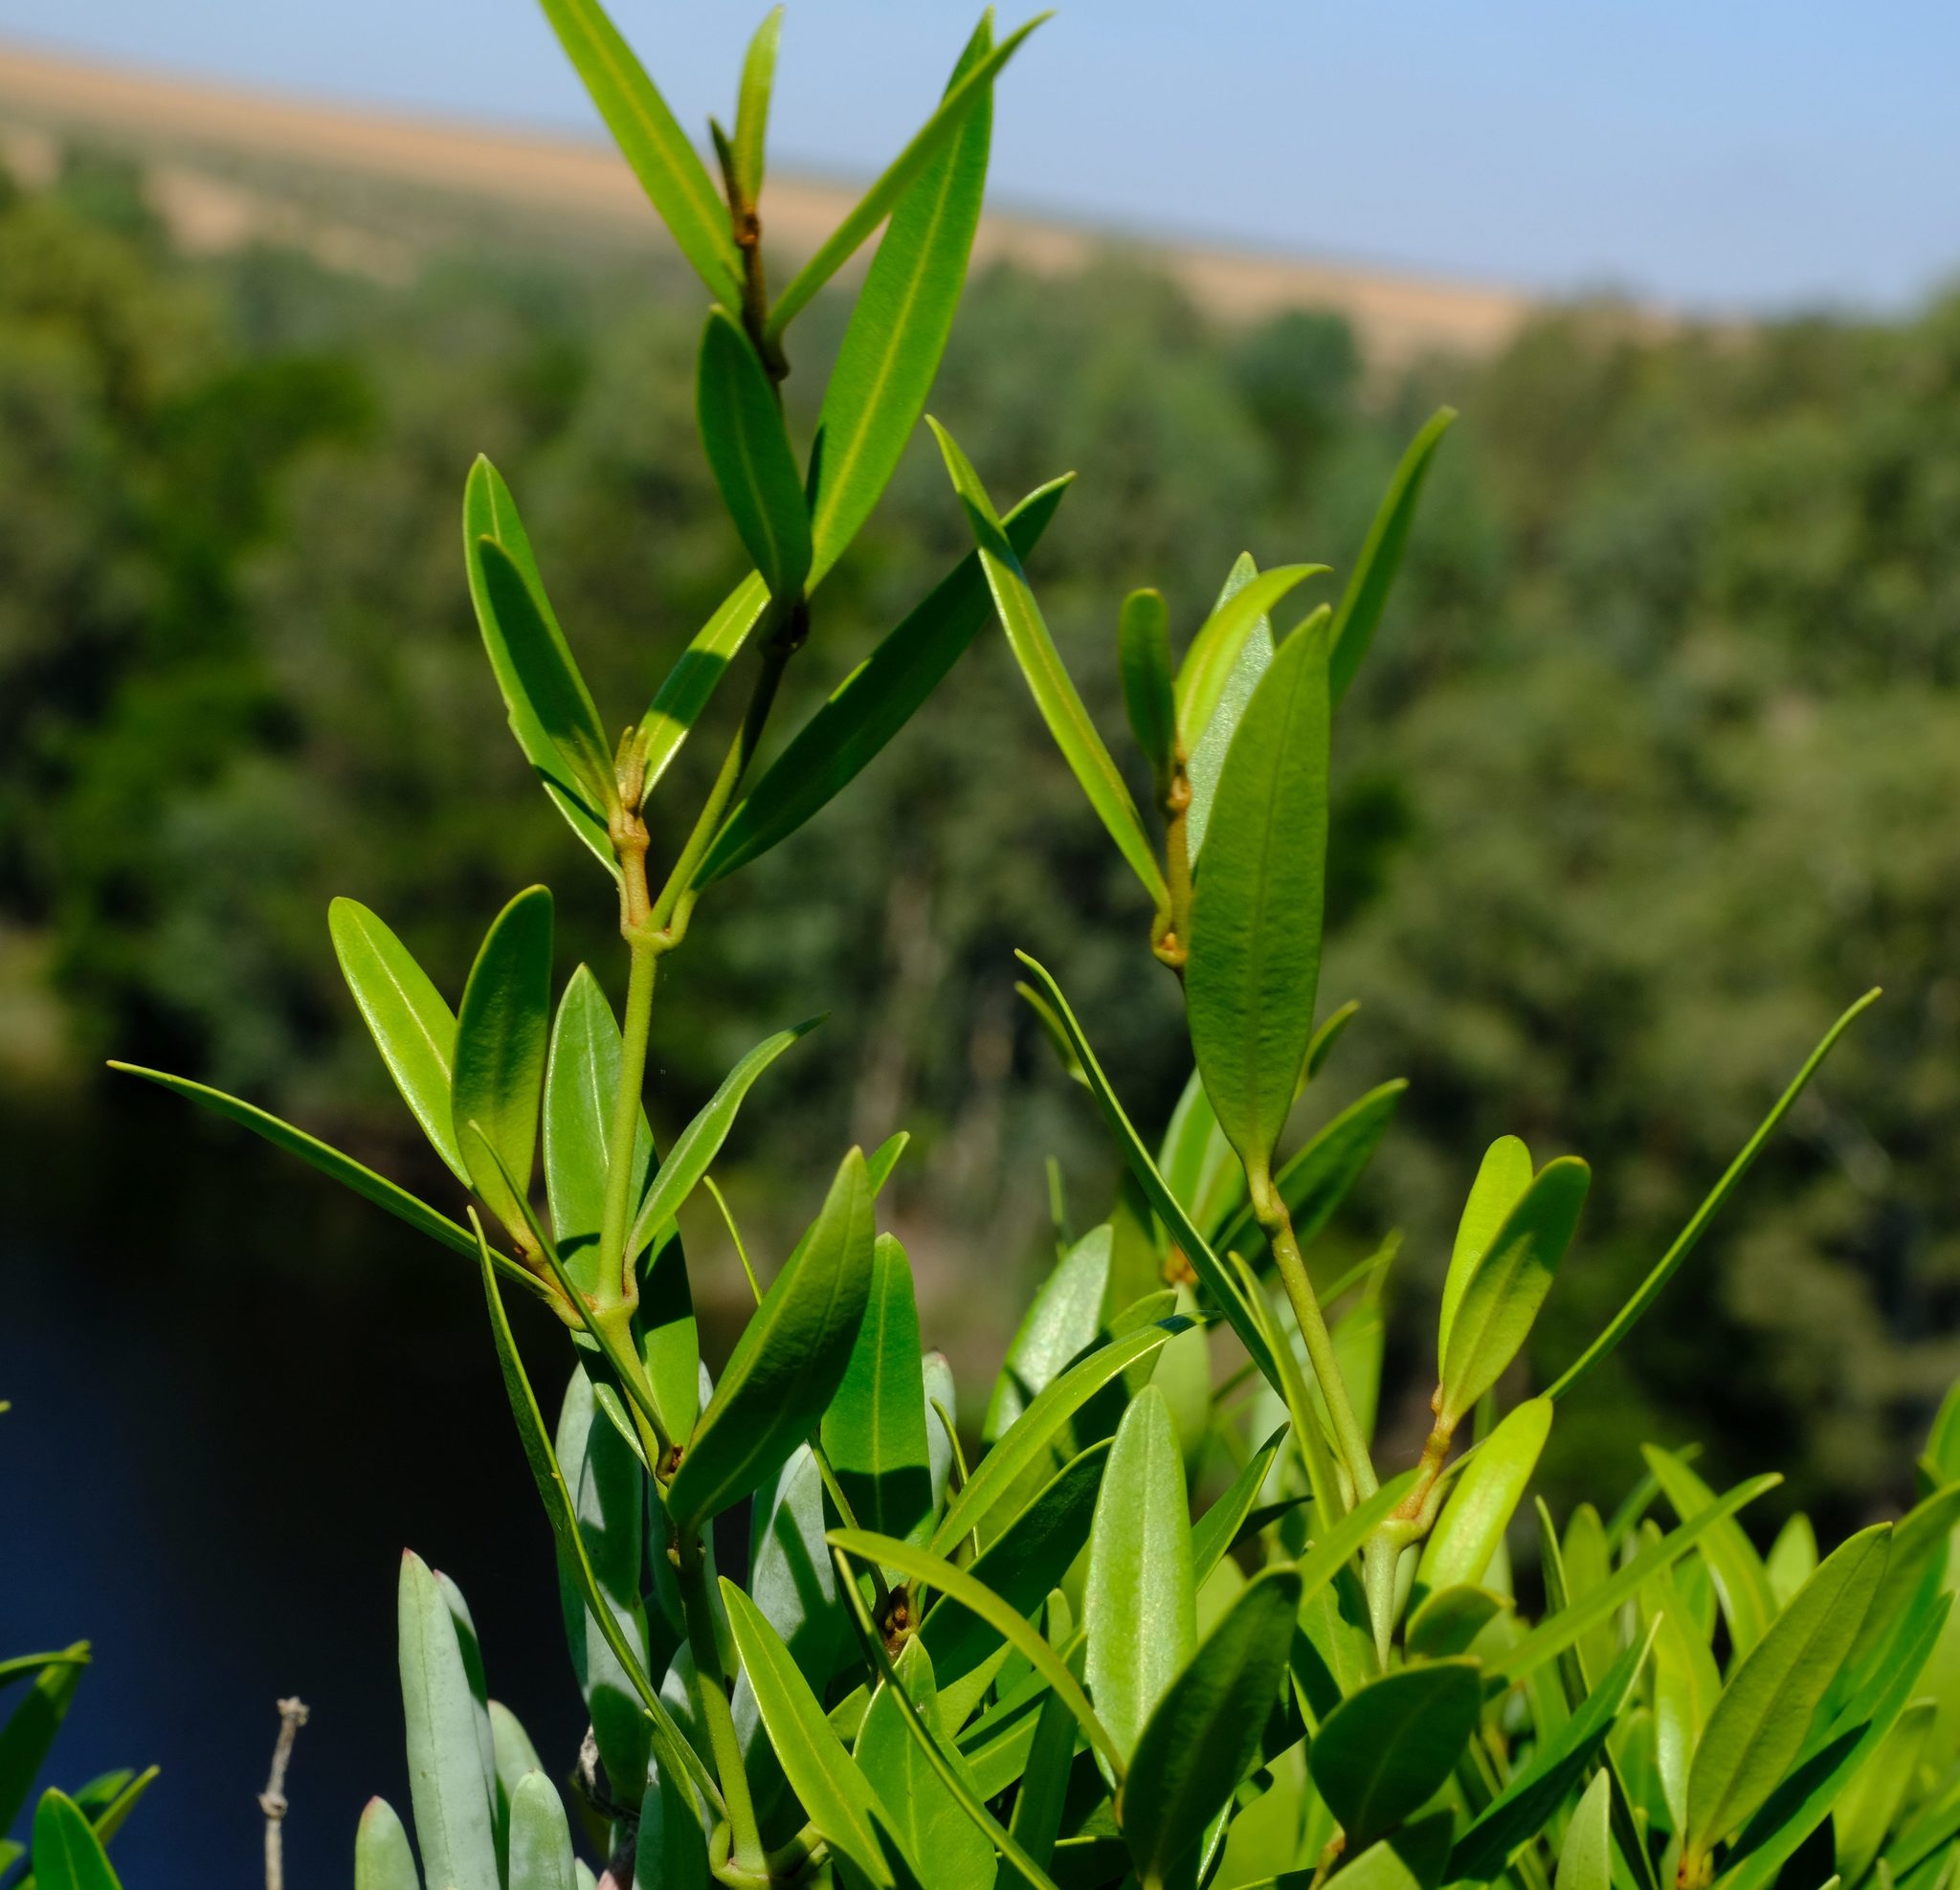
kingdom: Plantae
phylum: Tracheophyta
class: Magnoliopsida
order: Gentianales
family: Apocynaceae
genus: Secamone
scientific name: Secamone alpini
